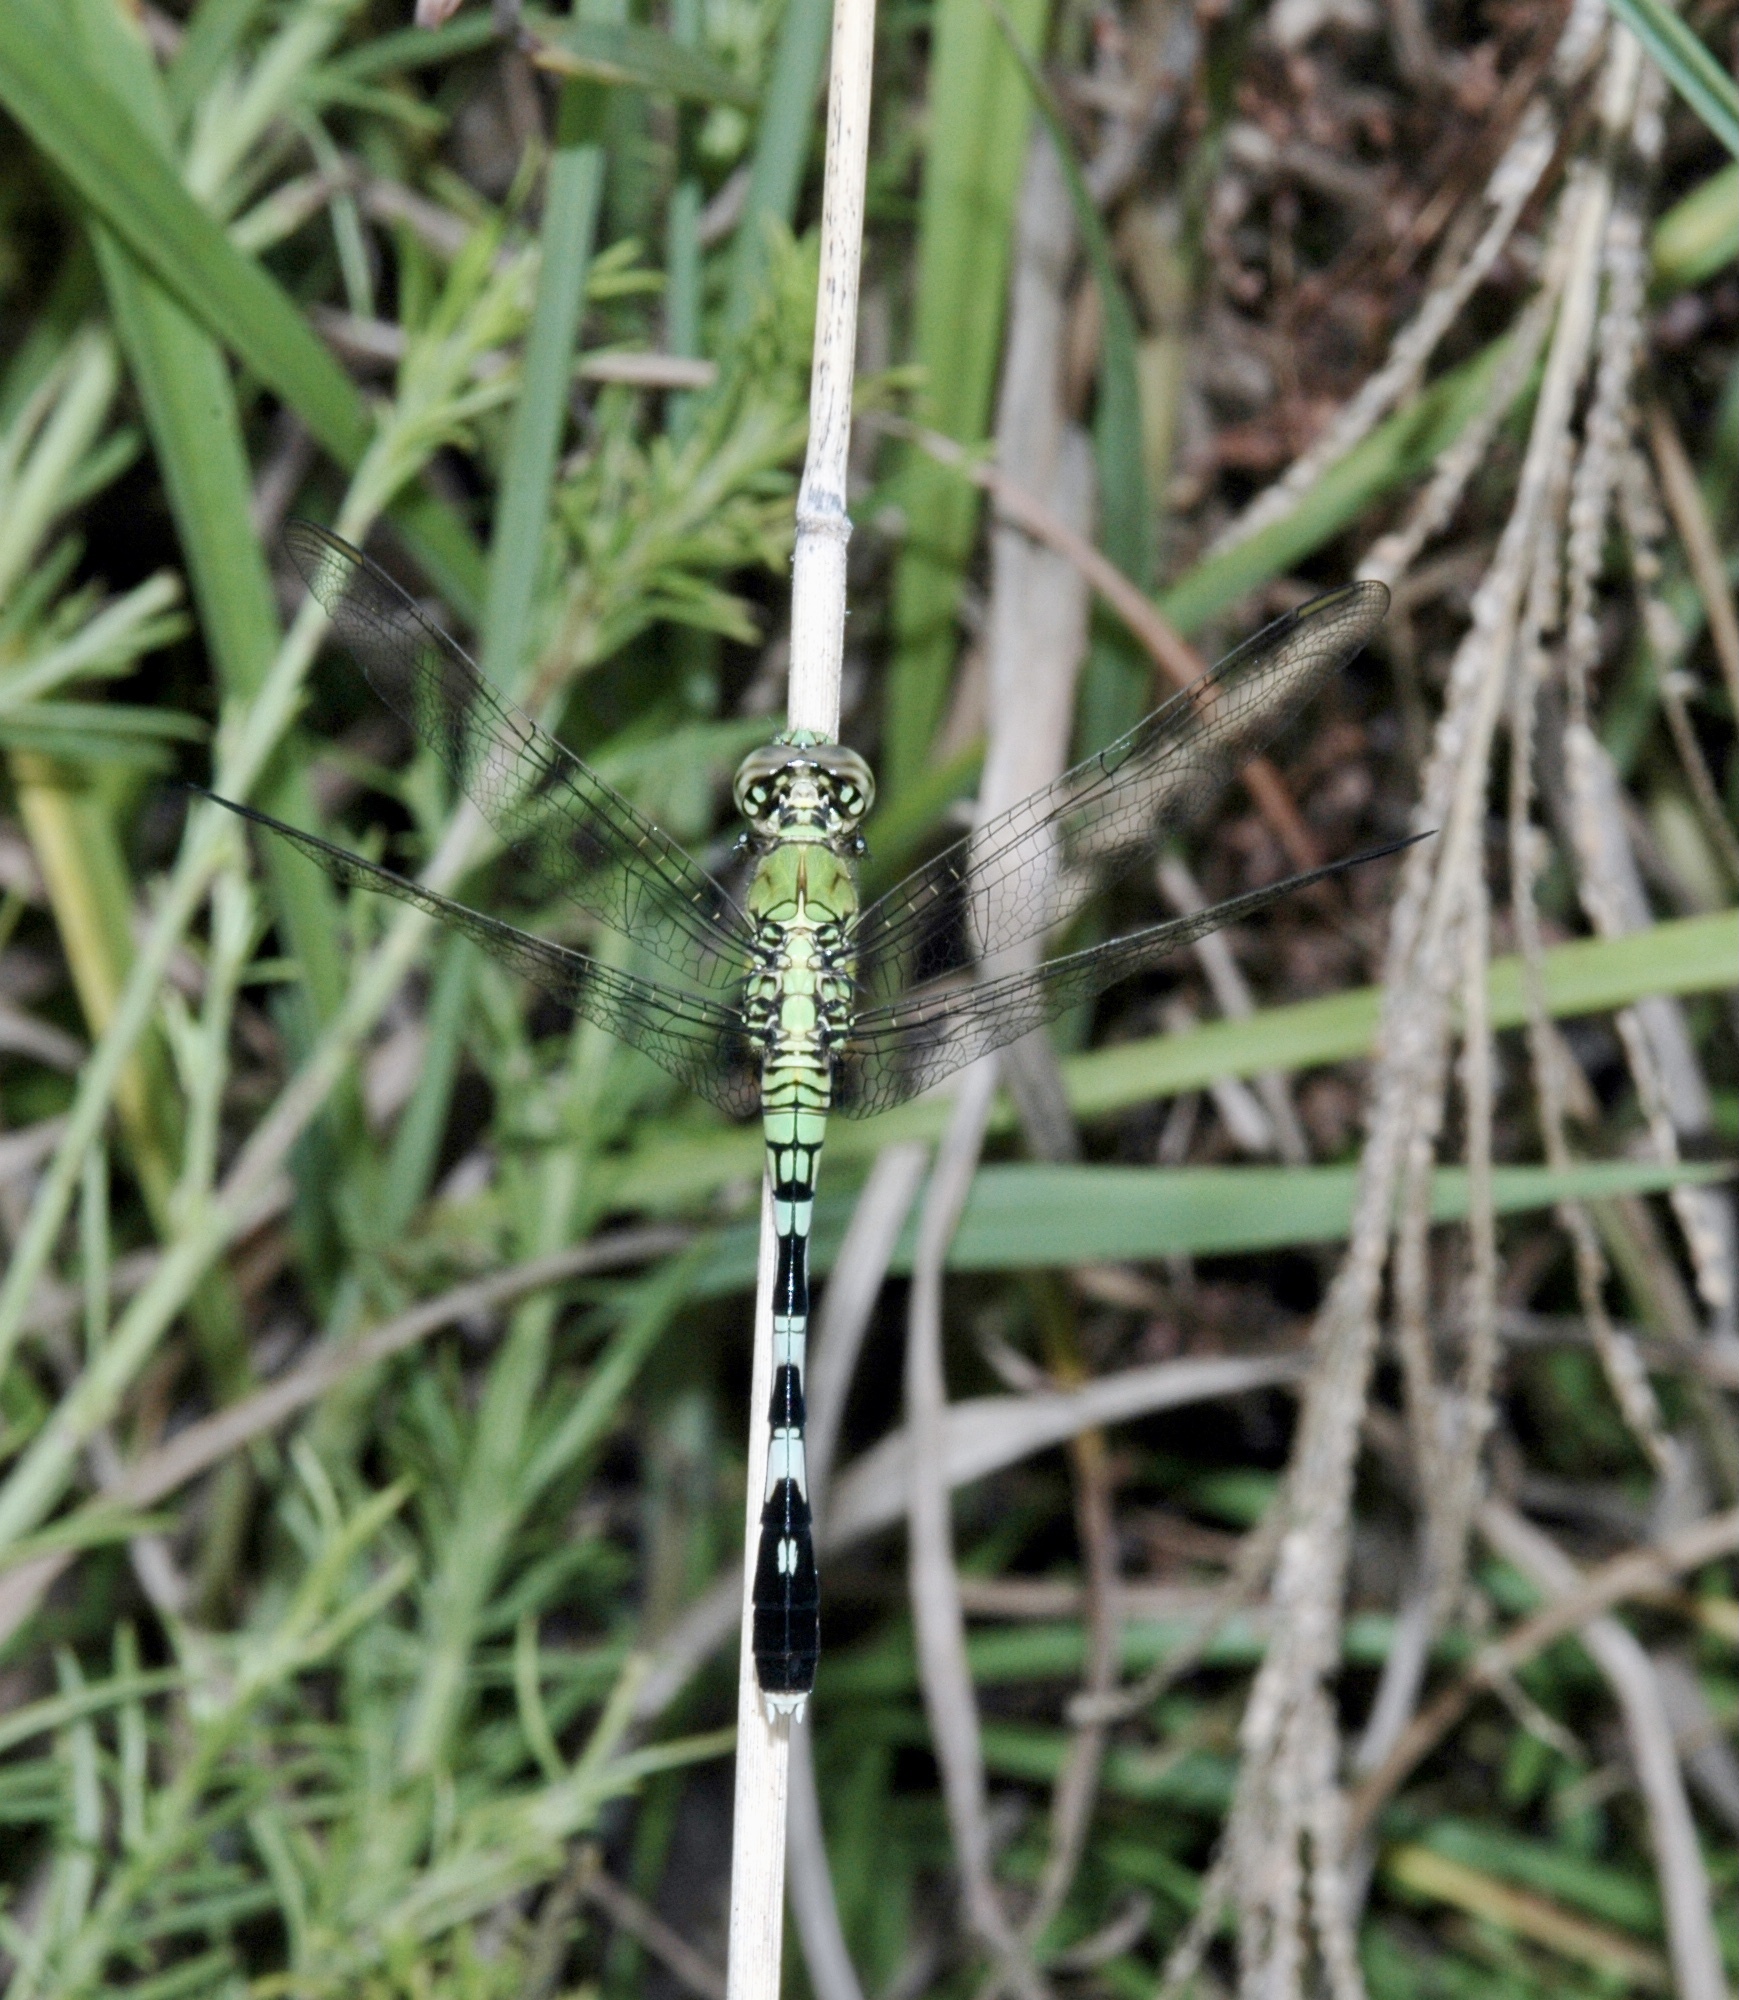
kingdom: Animalia
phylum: Arthropoda
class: Insecta
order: Odonata
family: Libellulidae
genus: Erythemis
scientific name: Erythemis simplicicollis
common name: Eastern pondhawk
